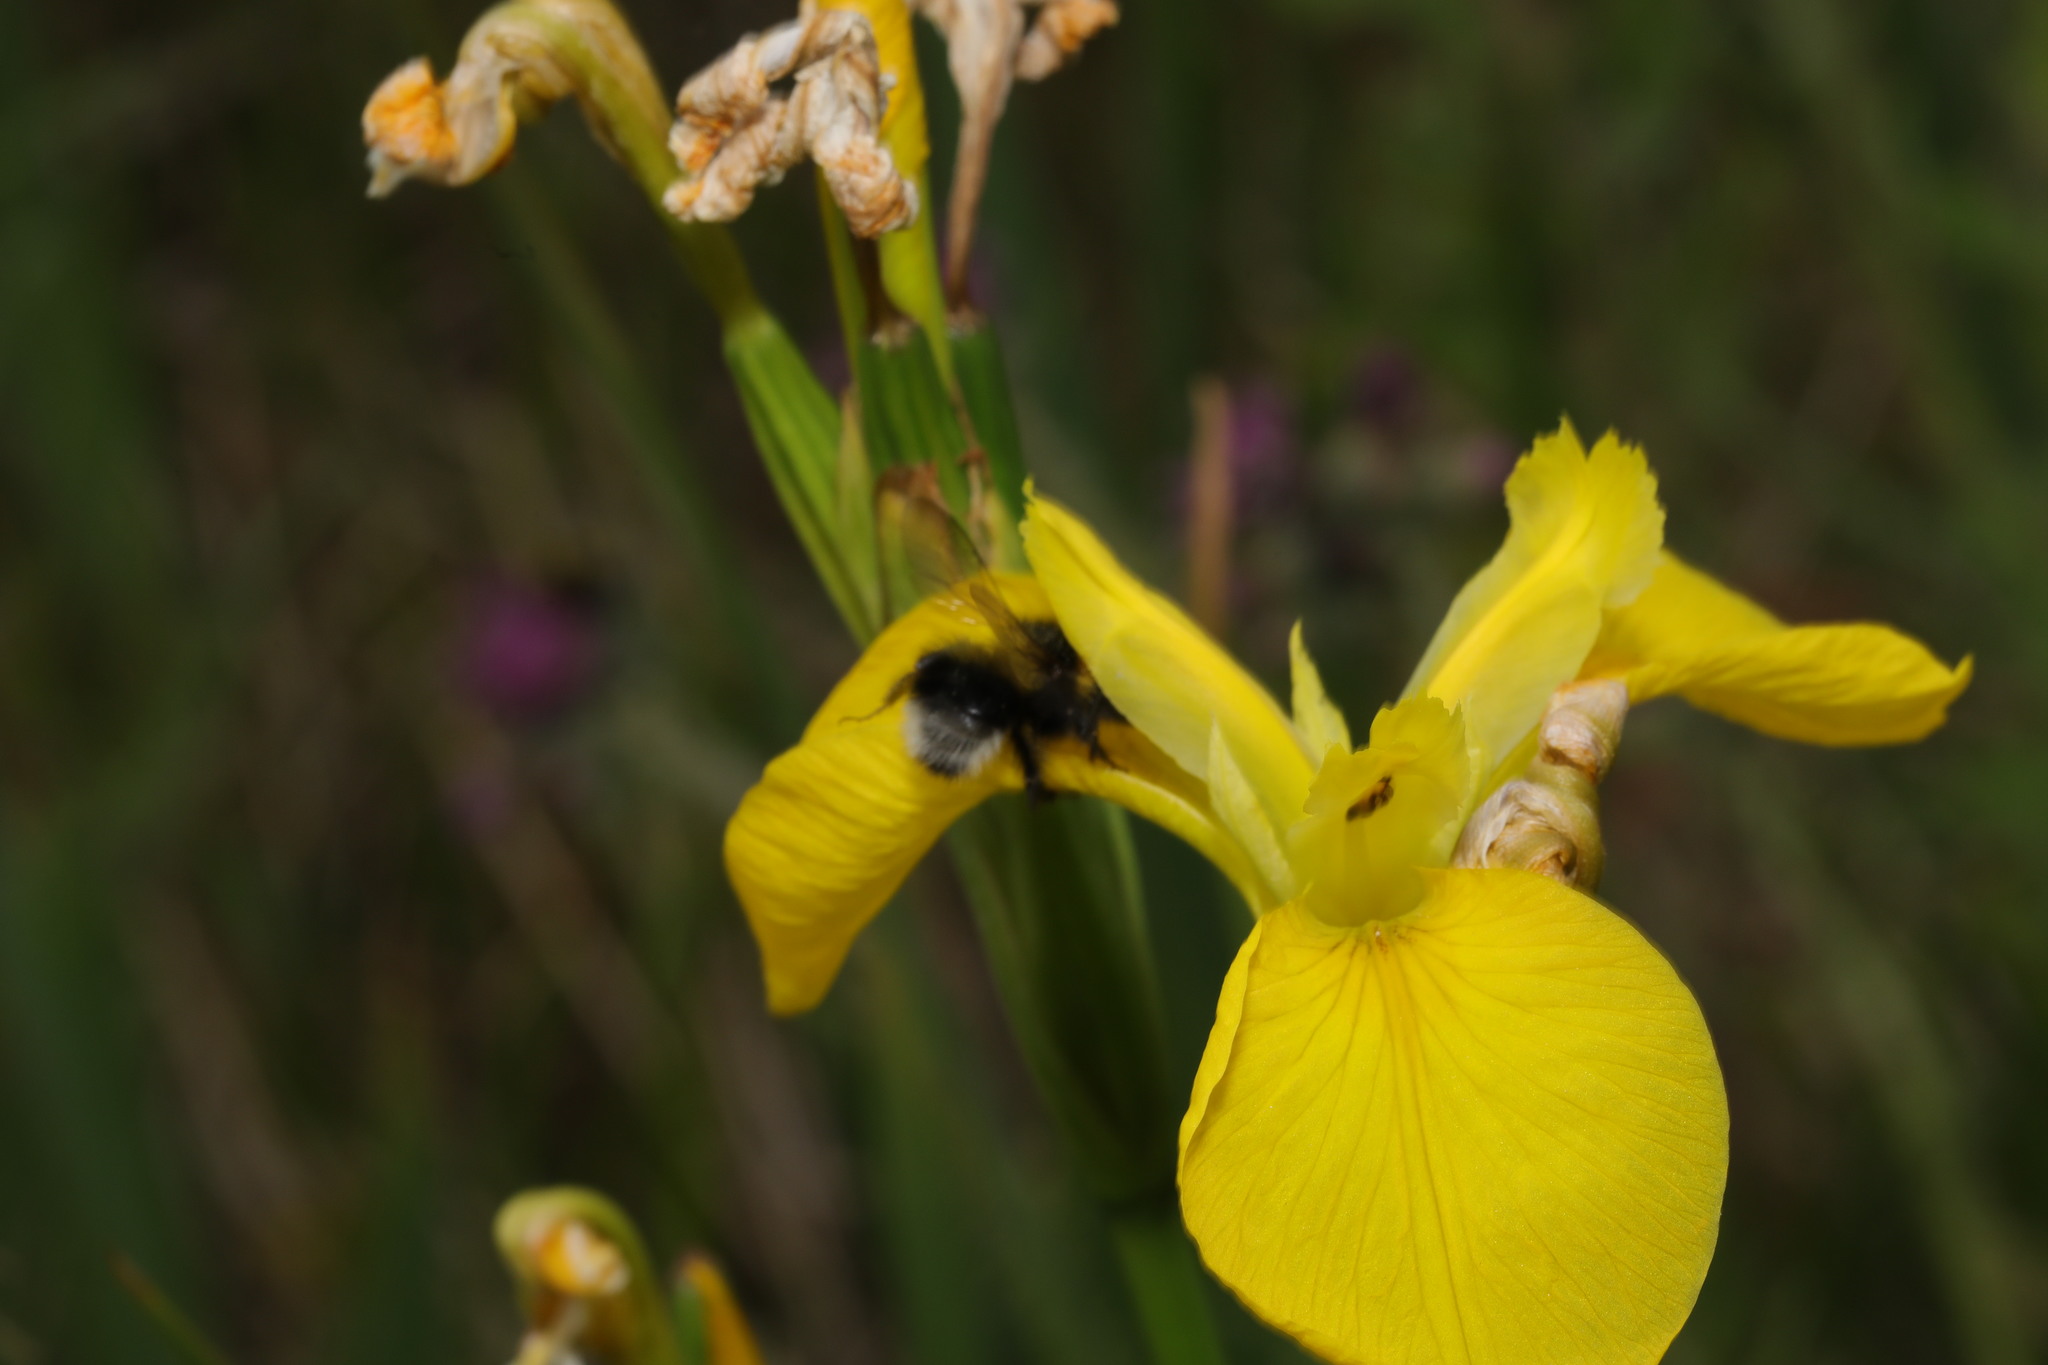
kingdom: Plantae
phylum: Tracheophyta
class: Liliopsida
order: Asparagales
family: Iridaceae
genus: Iris
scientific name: Iris pseudacorus
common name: Yellow flag
